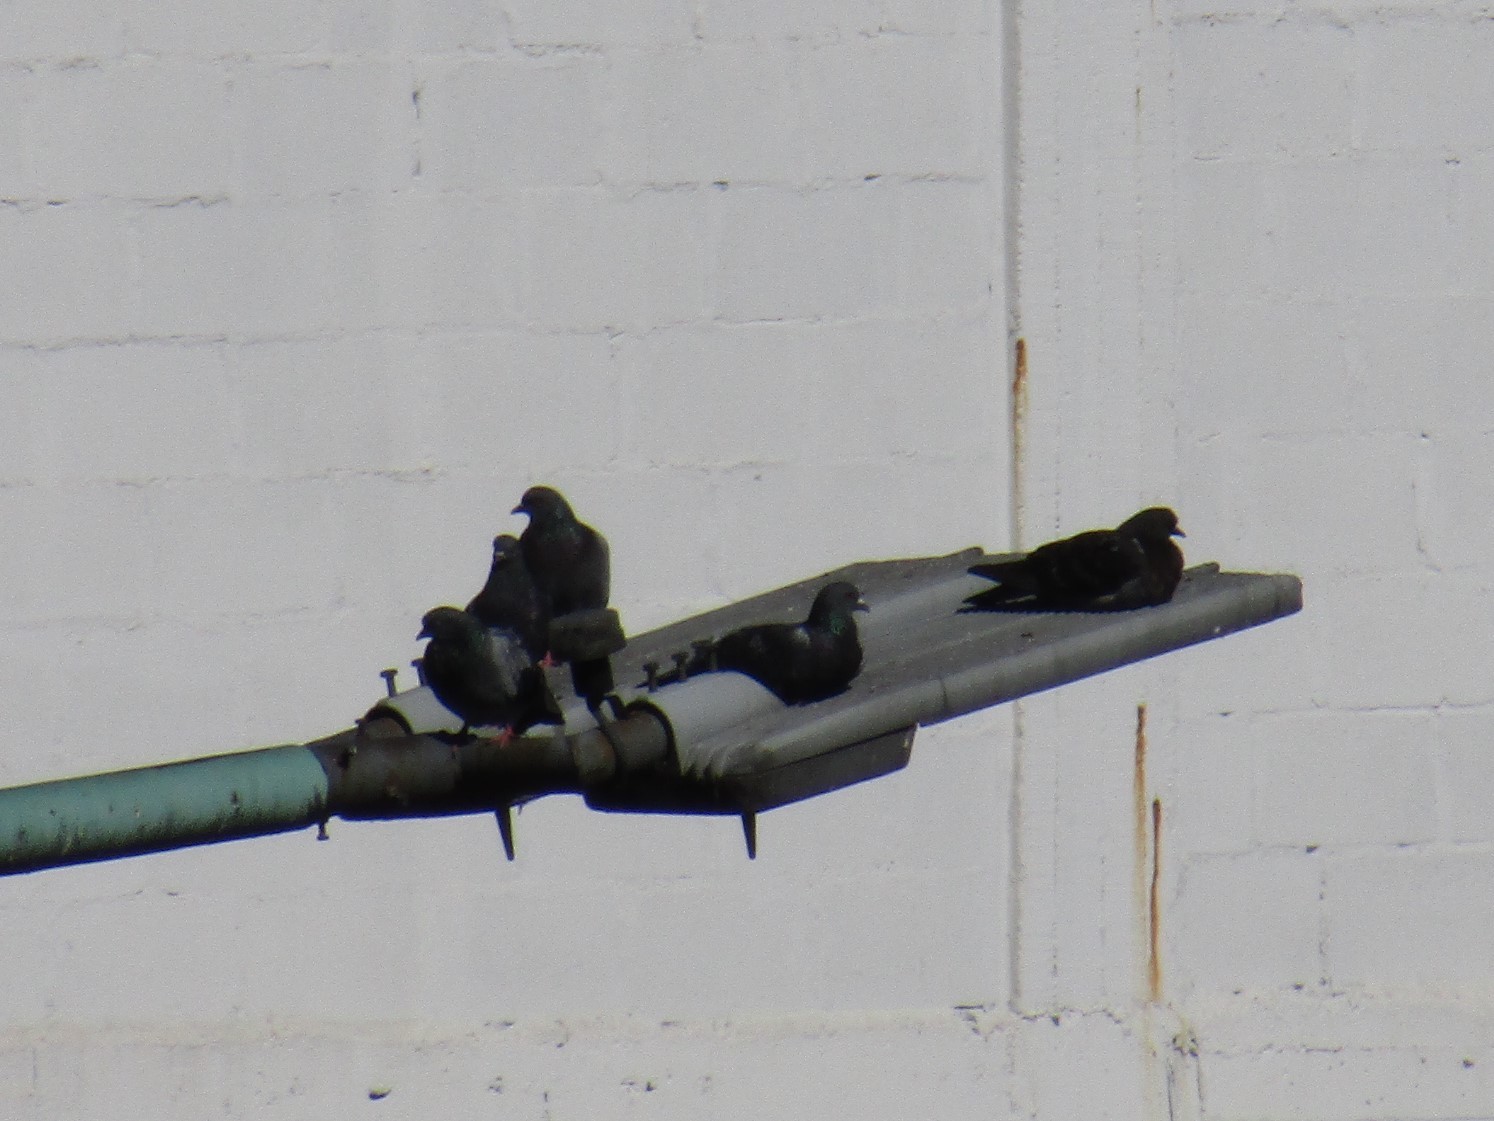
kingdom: Animalia
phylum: Chordata
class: Aves
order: Columbiformes
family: Columbidae
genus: Columba
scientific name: Columba livia
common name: Rock pigeon
